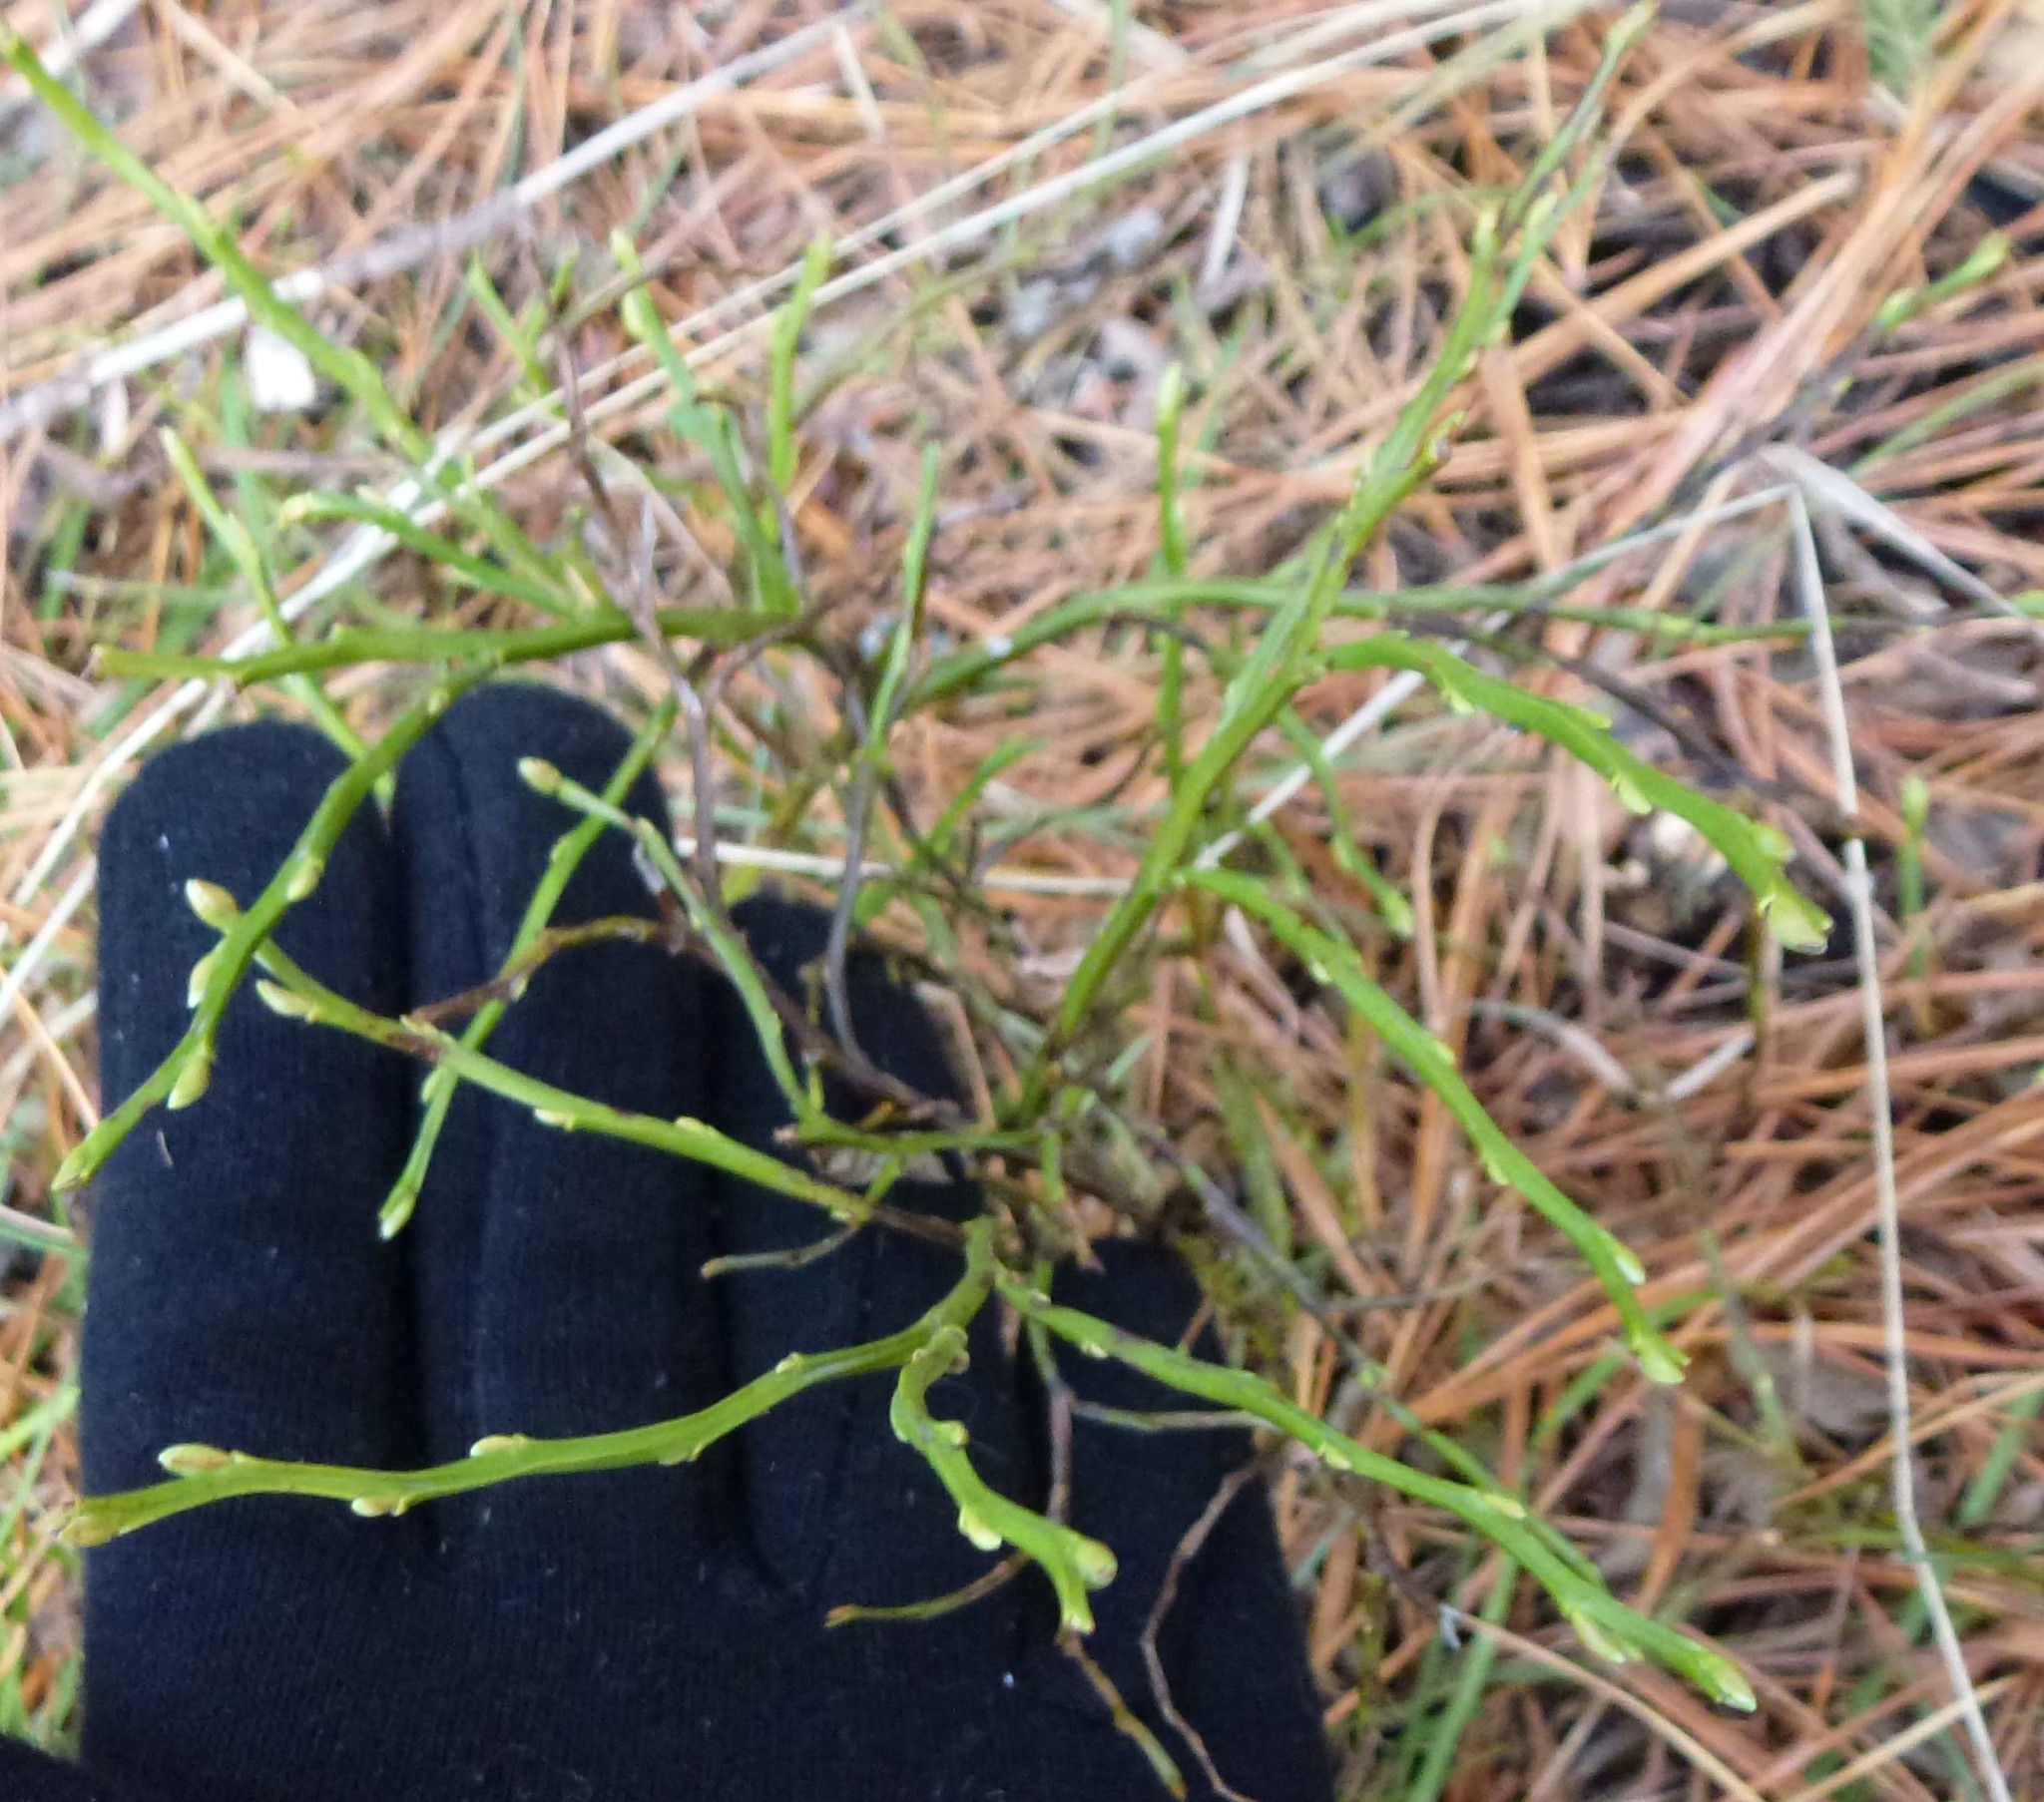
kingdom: Plantae
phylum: Tracheophyta
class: Magnoliopsida
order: Ericales
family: Ericaceae
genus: Vaccinium
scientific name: Vaccinium myrtillus
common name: Bilberry
